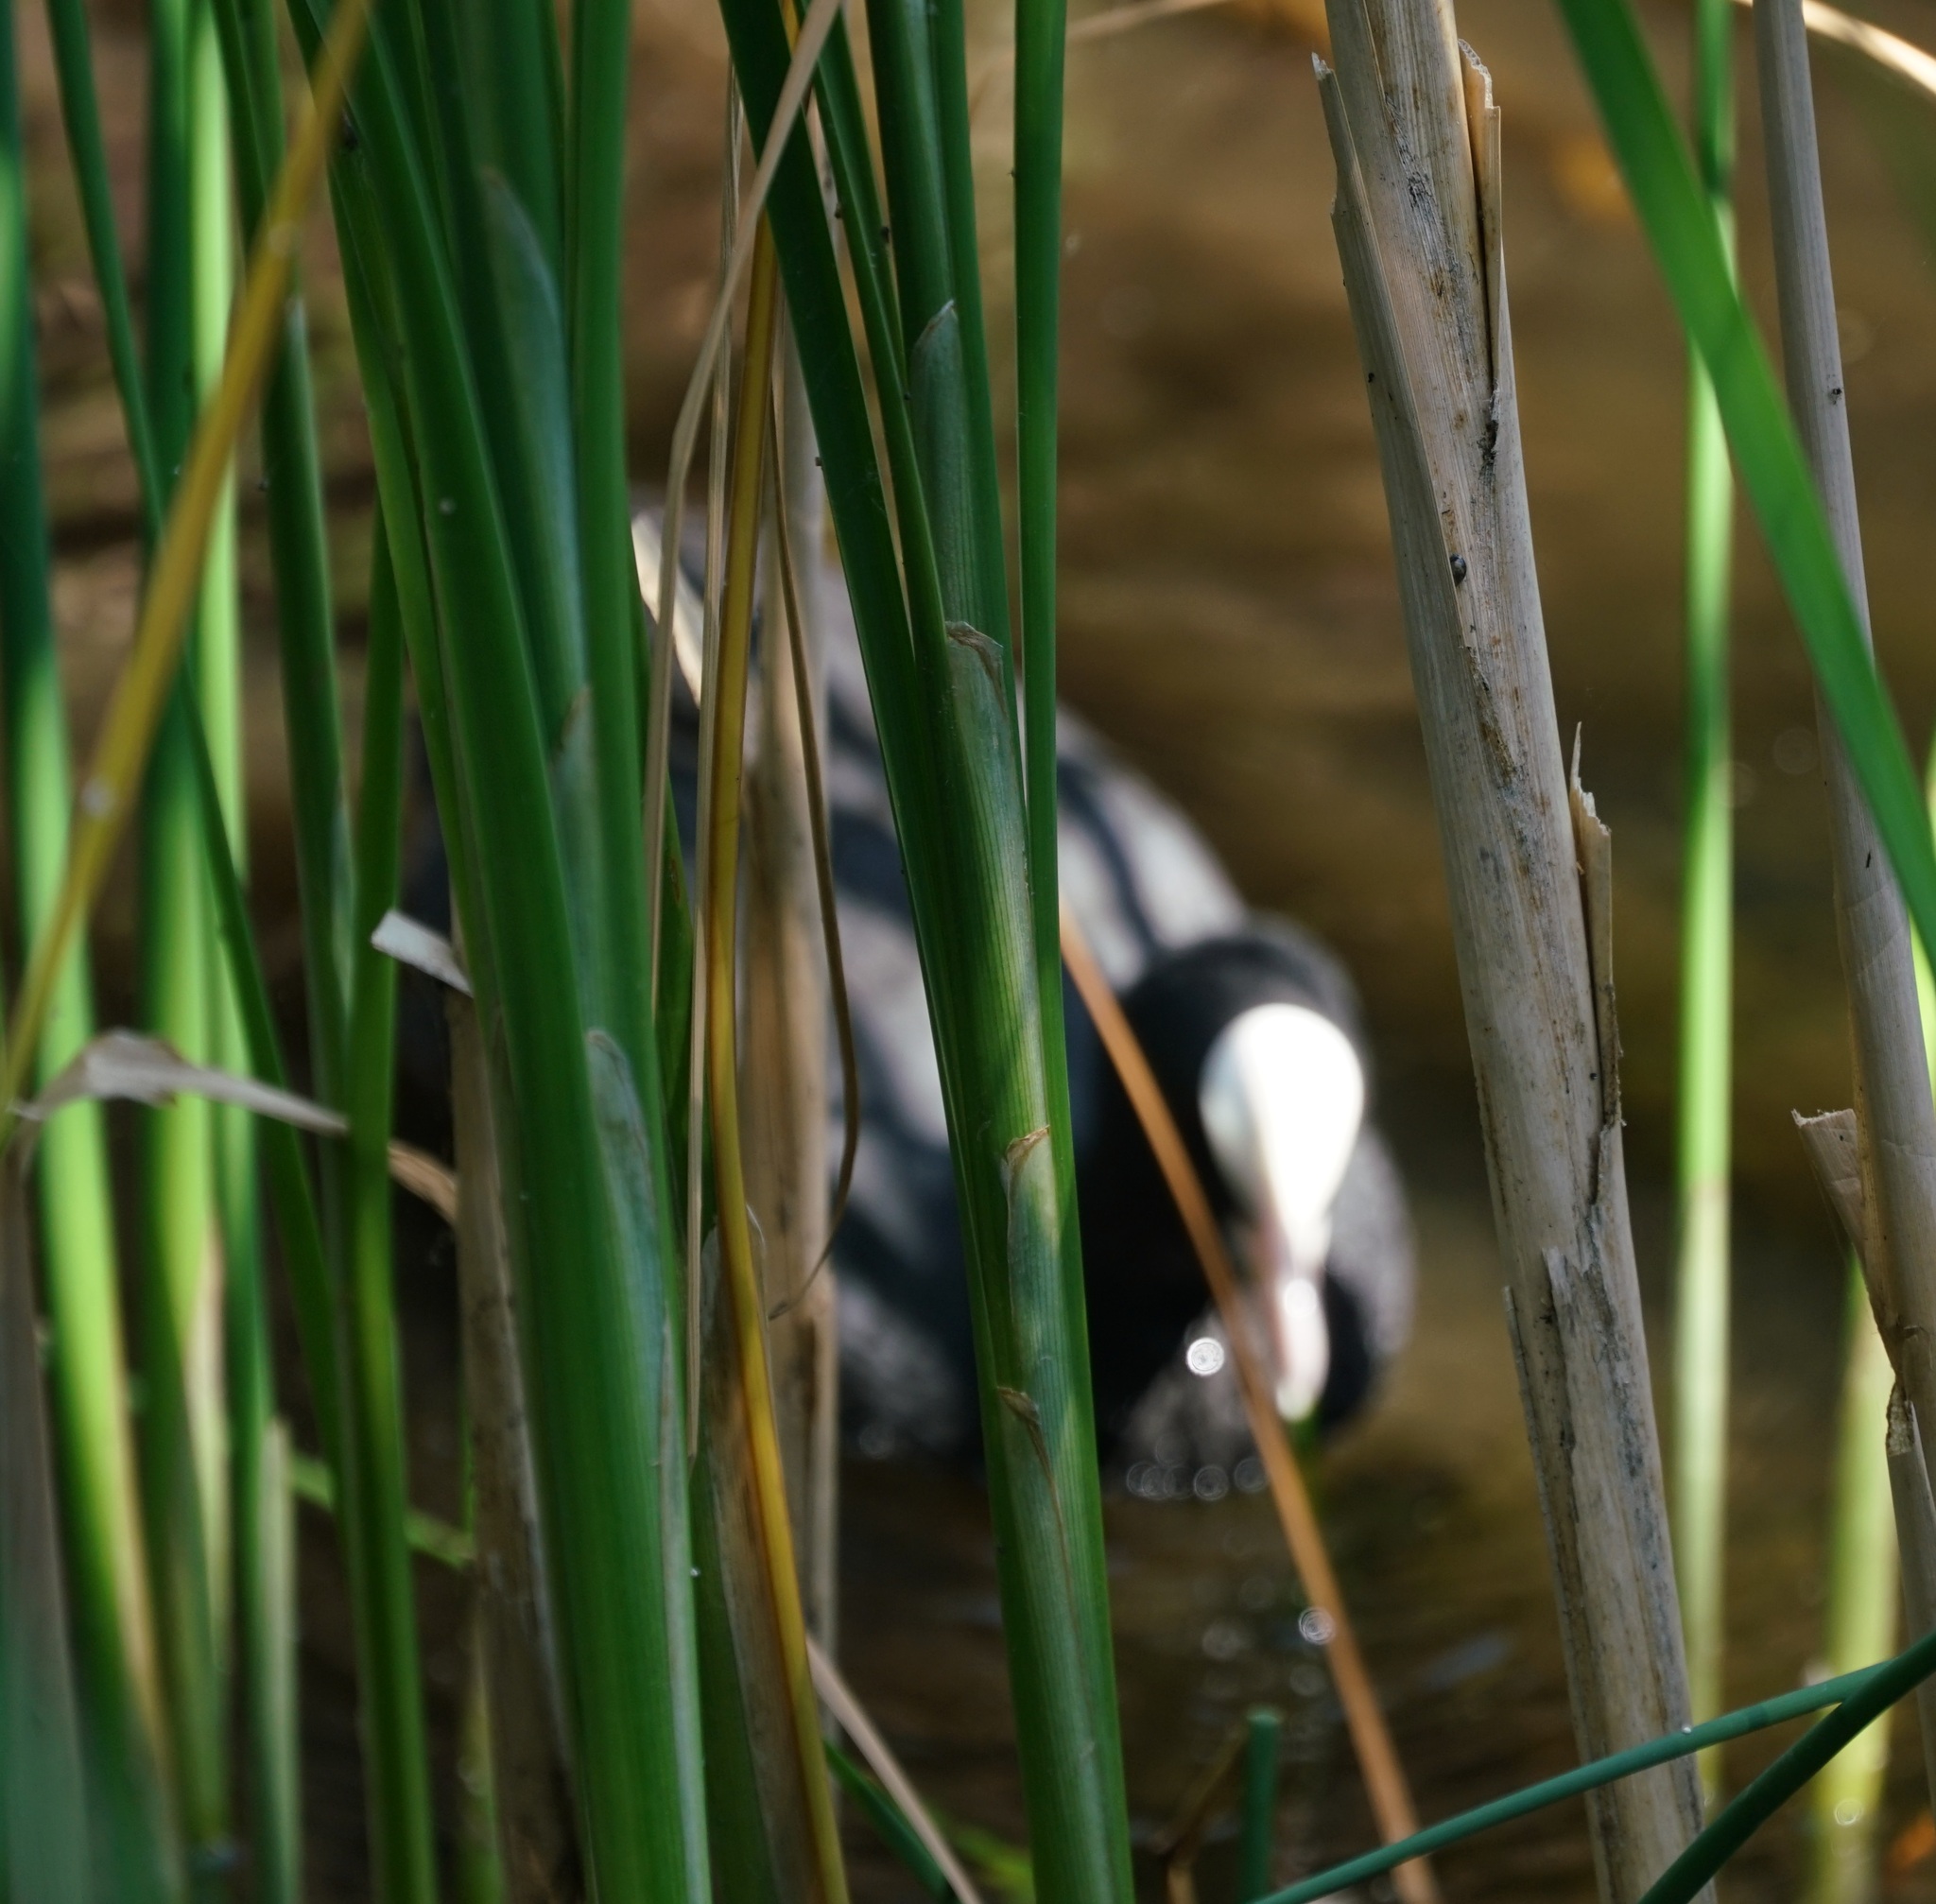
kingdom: Animalia
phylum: Chordata
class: Aves
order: Gruiformes
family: Rallidae
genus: Fulica
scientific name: Fulica atra
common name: Eurasian coot
